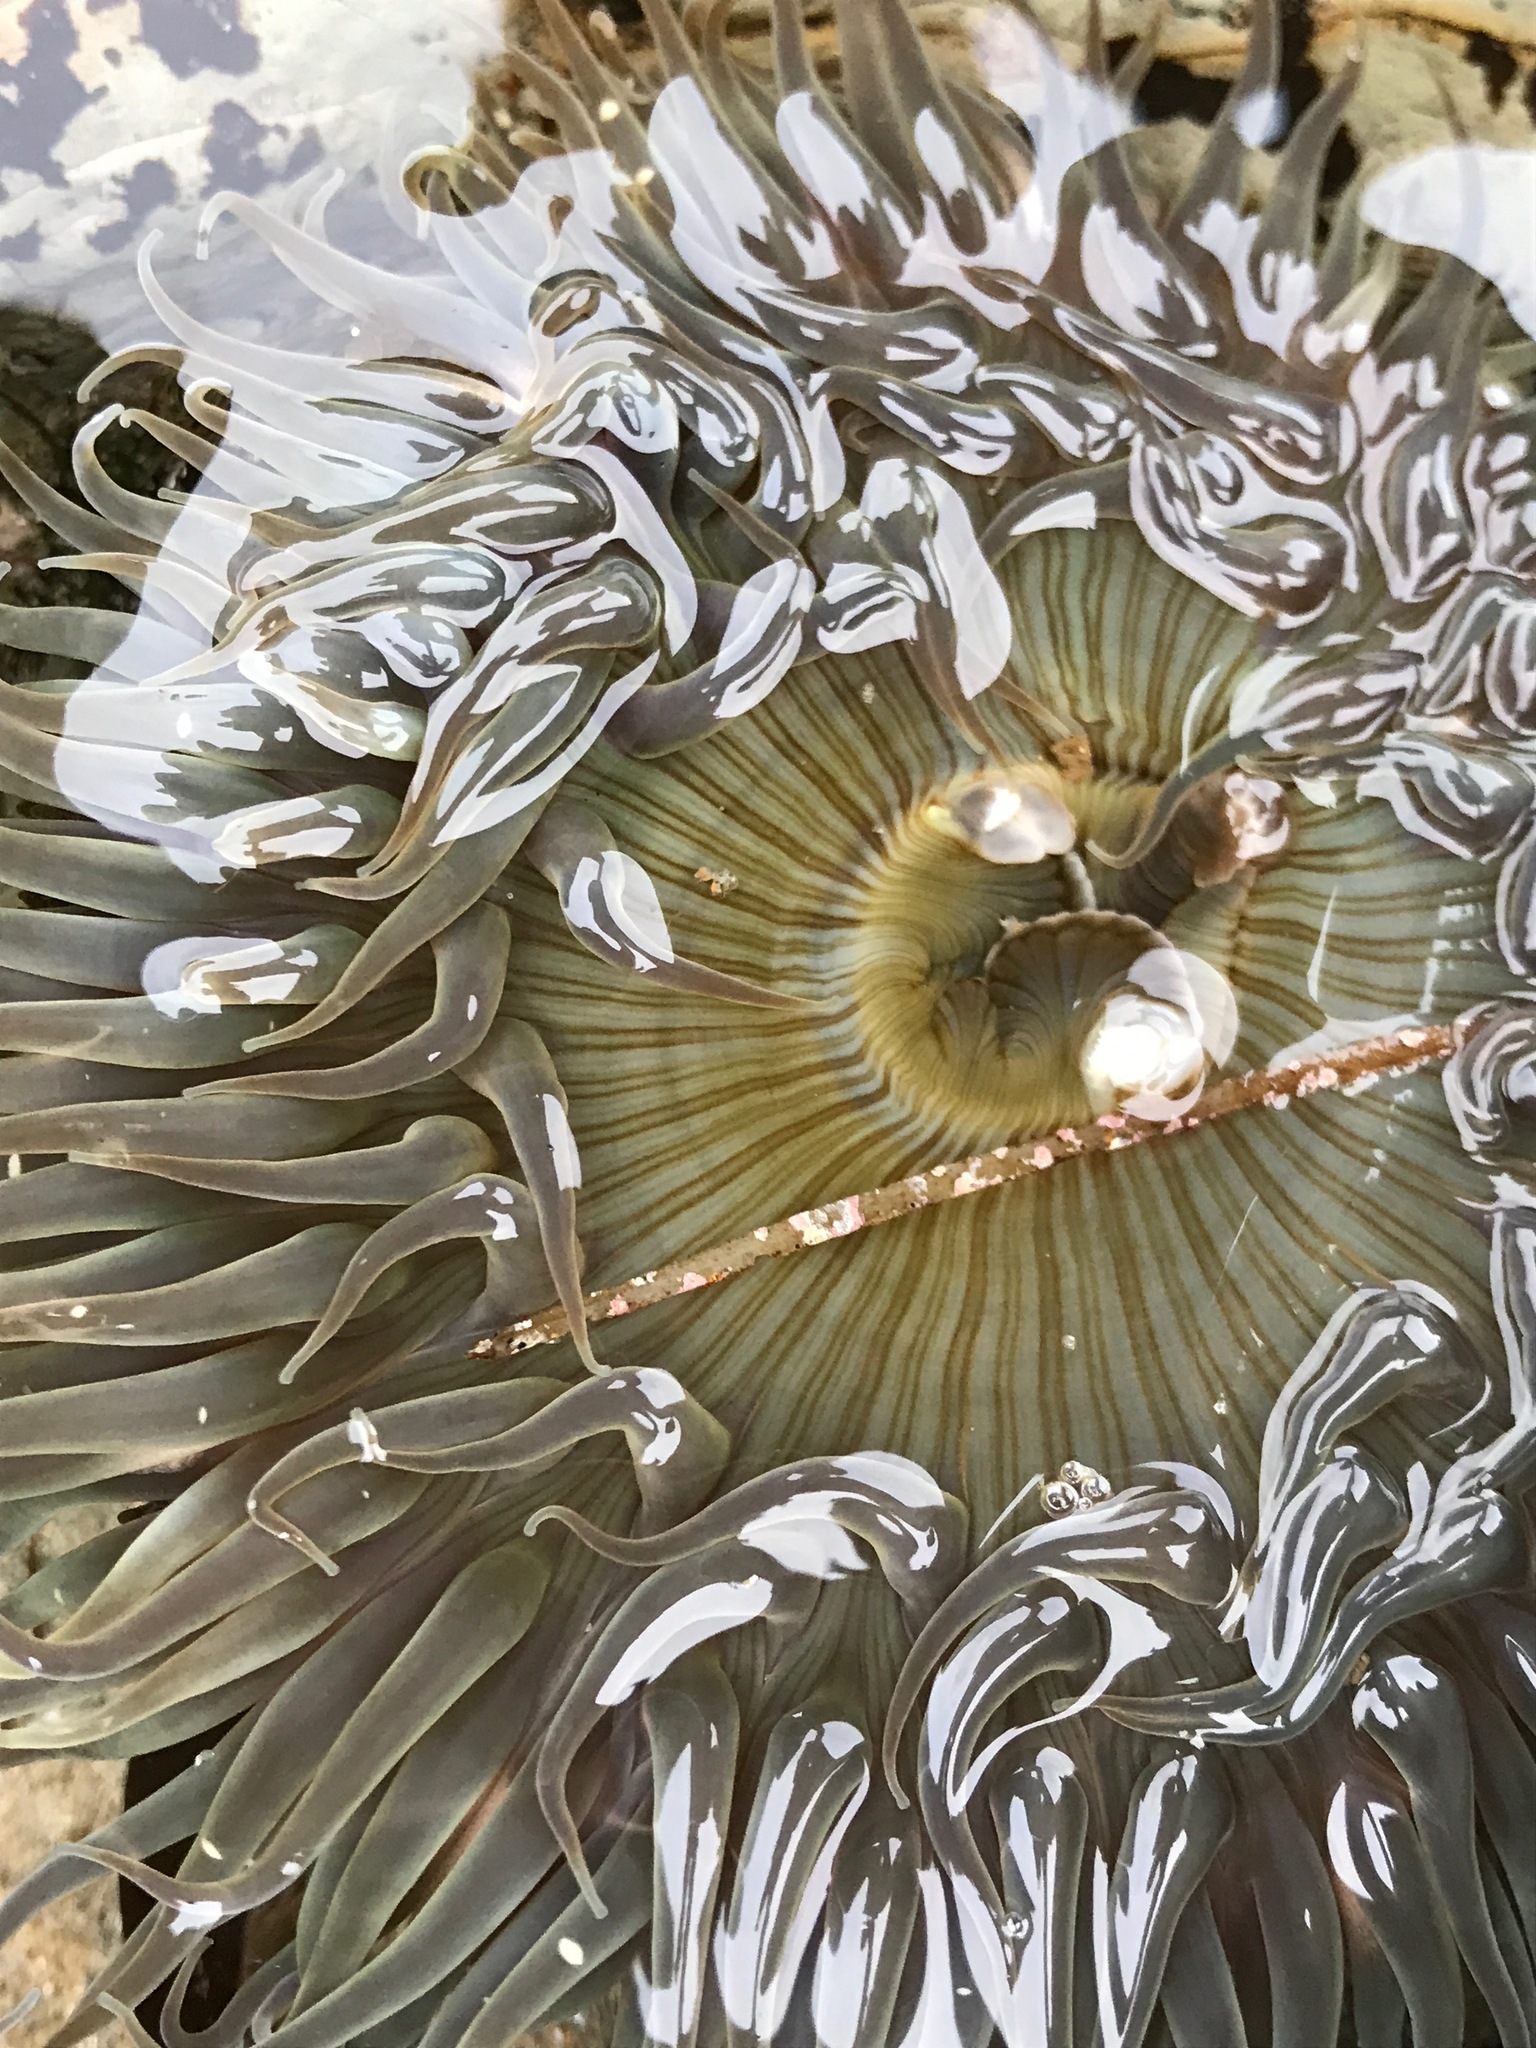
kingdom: Animalia
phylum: Cnidaria
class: Anthozoa
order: Actiniaria
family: Actiniidae
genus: Anthopleura
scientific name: Anthopleura sola
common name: Sun anemone
